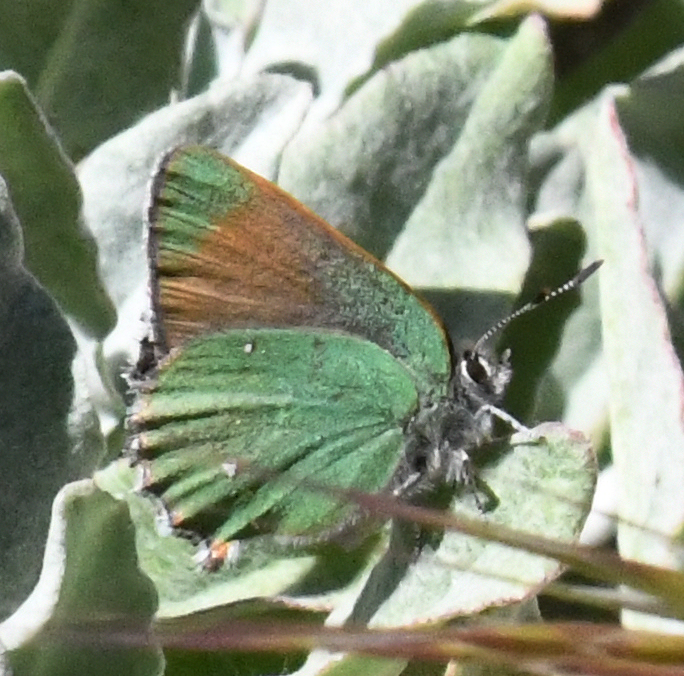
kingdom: Animalia
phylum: Arthropoda
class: Insecta
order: Lepidoptera
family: Lycaenidae
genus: Callophrys
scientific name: Callophrys dumetorum
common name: Bramble hairstreak
